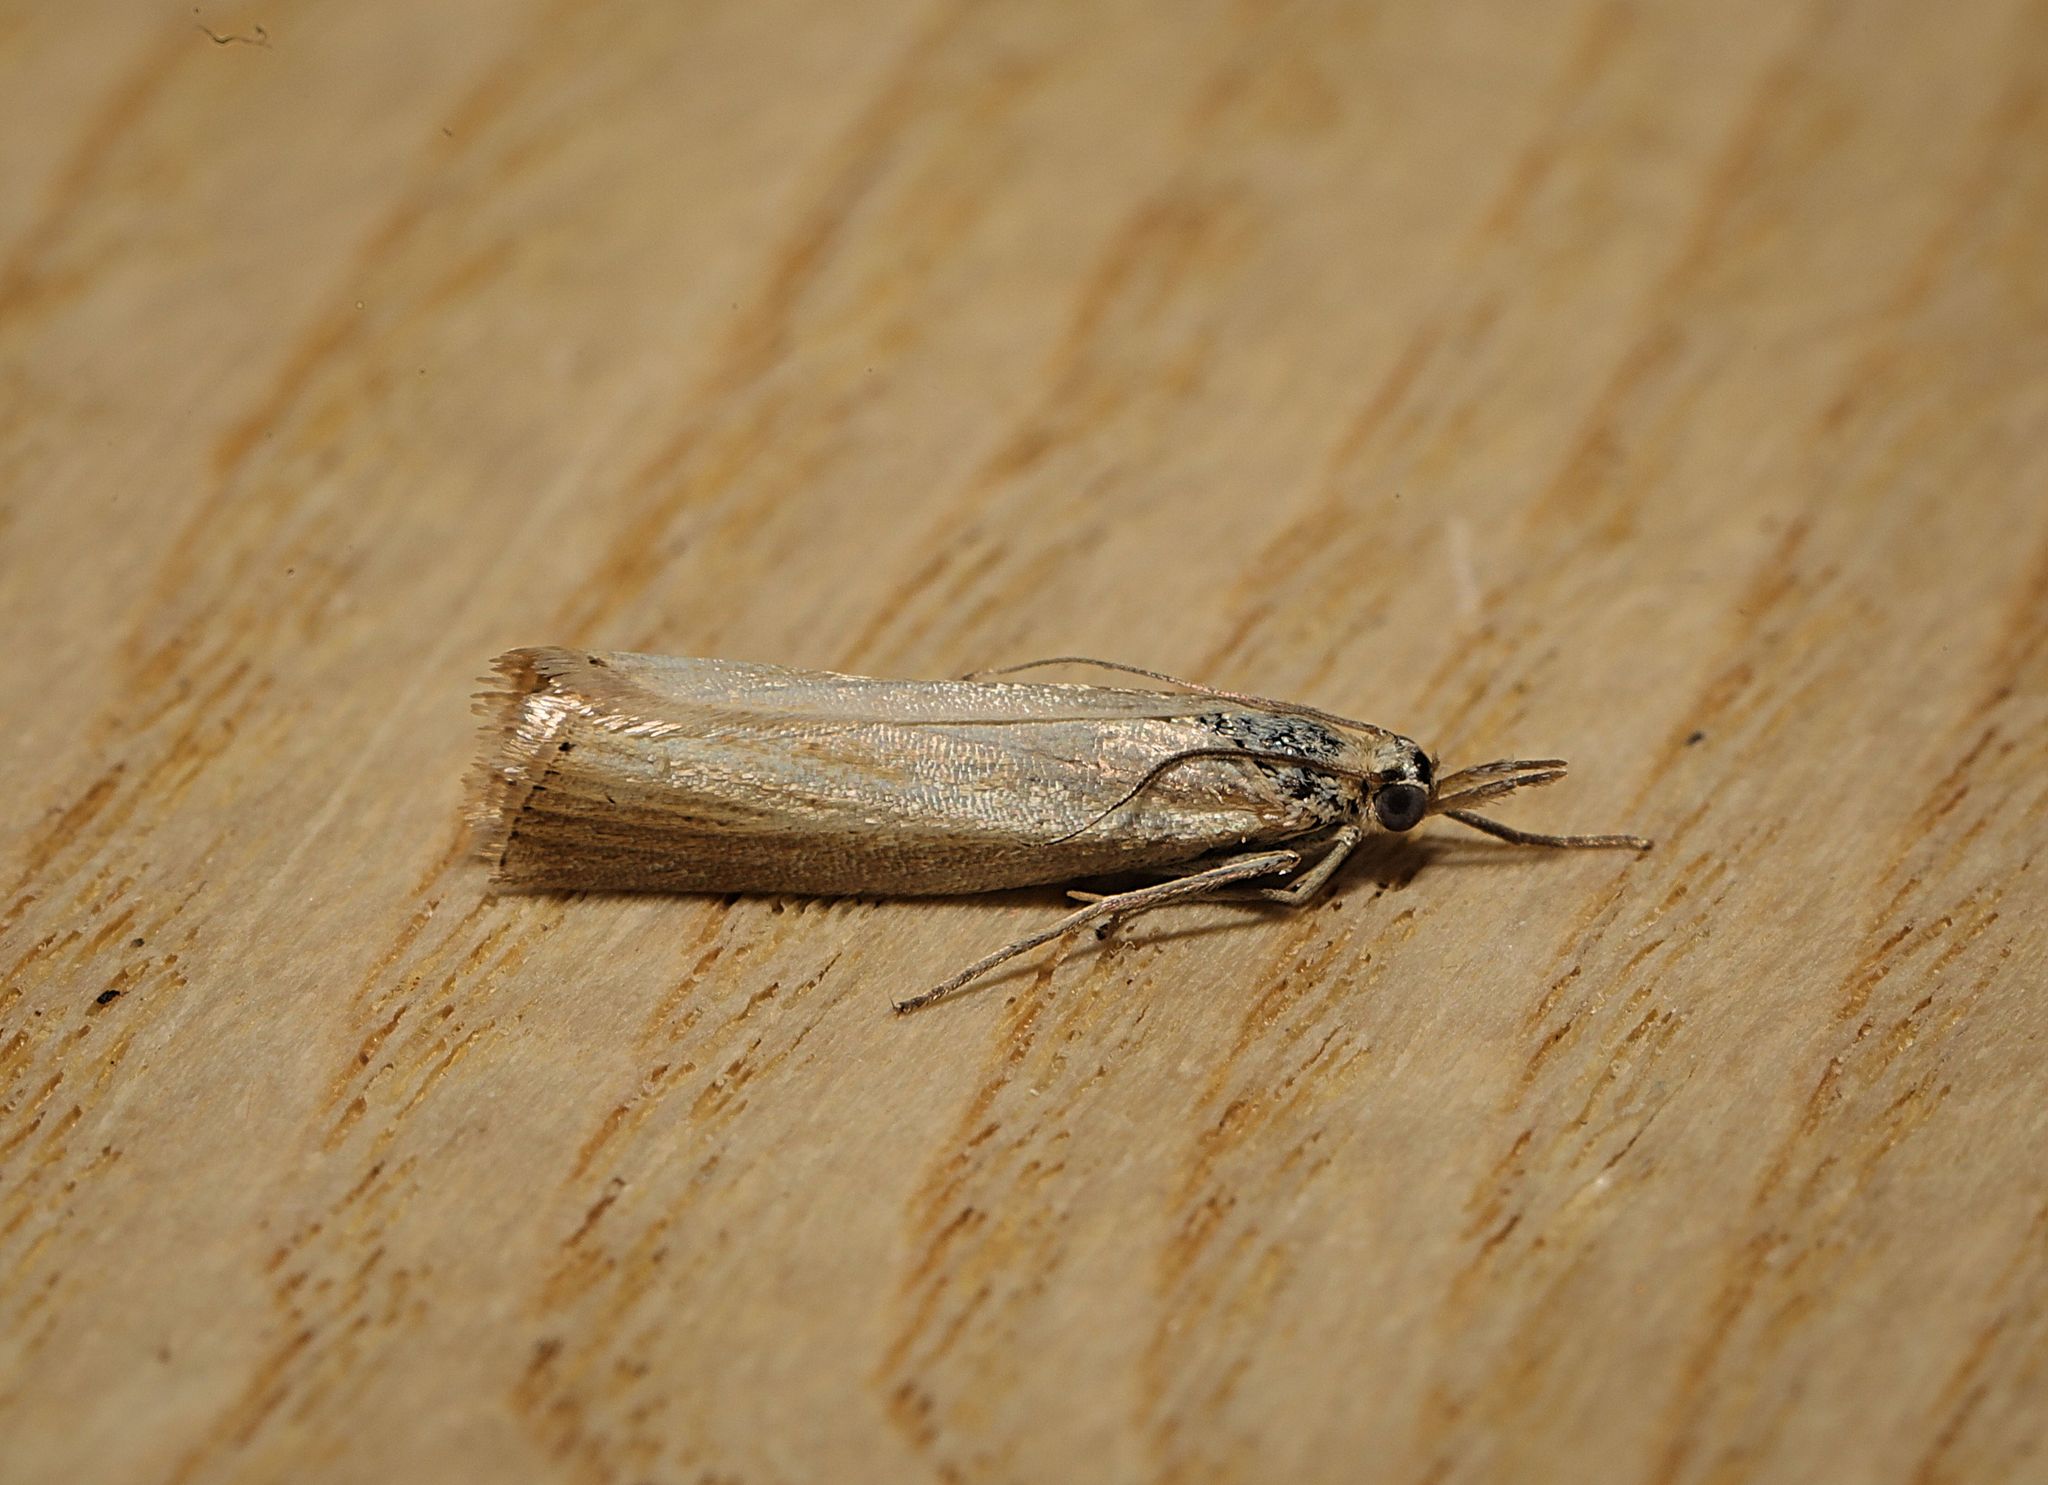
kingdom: Animalia
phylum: Arthropoda
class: Insecta
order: Lepidoptera
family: Crambidae
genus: Agriphila
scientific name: Agriphila straminella
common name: Straw grass-veneer
